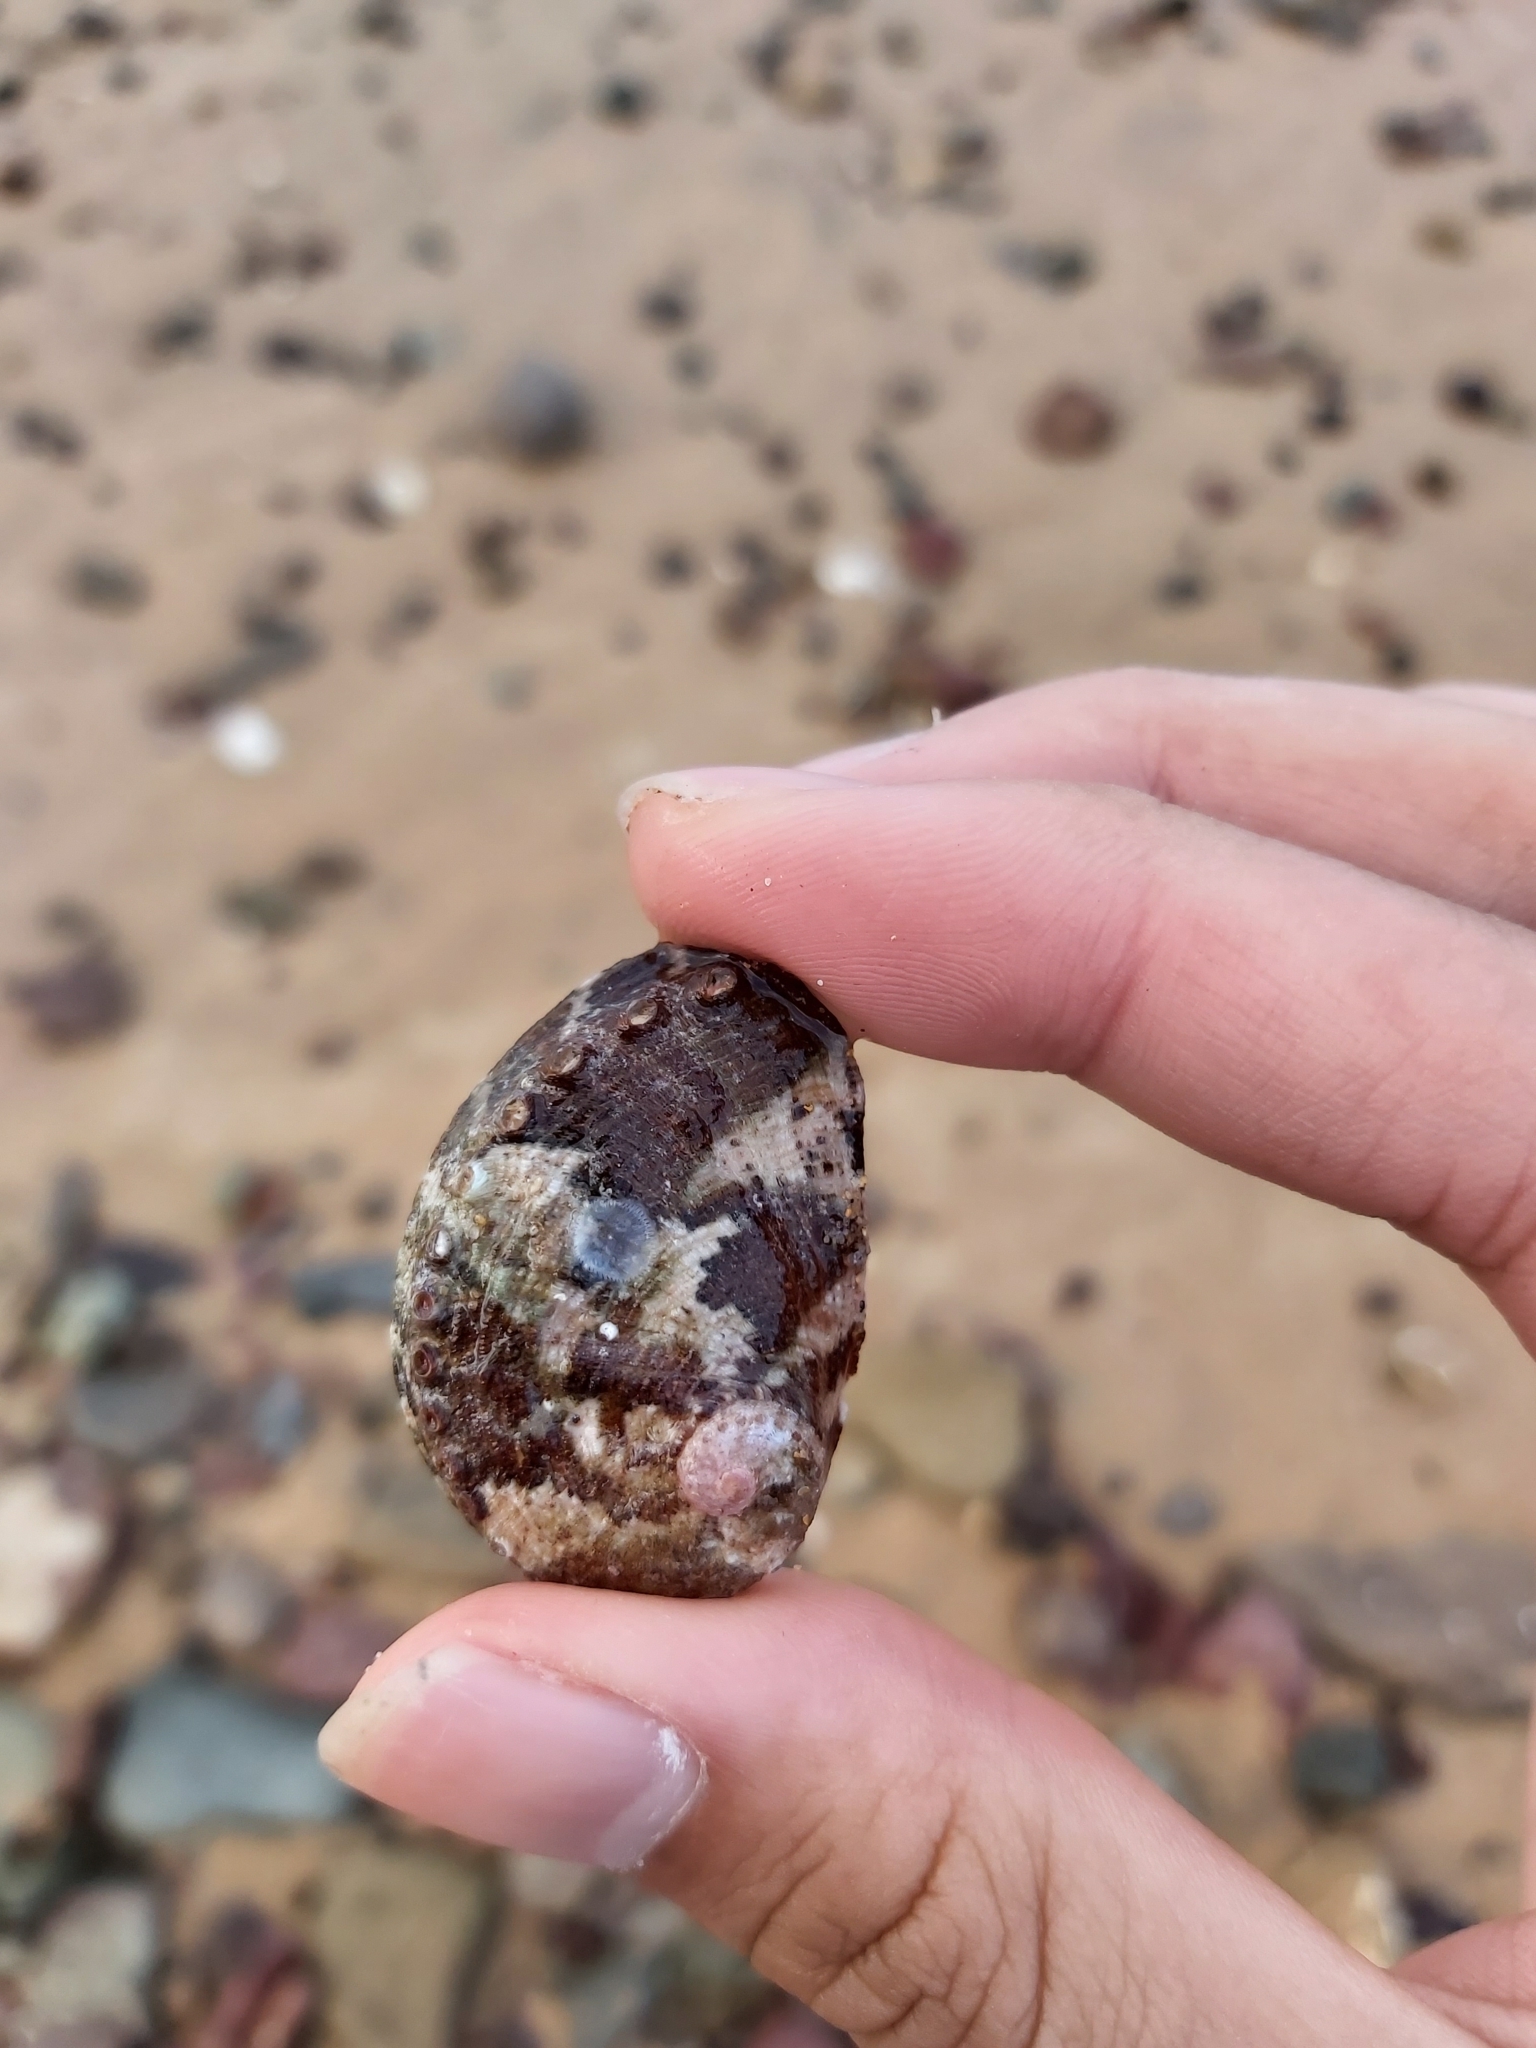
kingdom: Animalia
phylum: Mollusca
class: Gastropoda
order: Lepetellida
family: Haliotidae
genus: Haliotis
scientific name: Haliotis coccoradiata
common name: Reddish-rayed abalone
